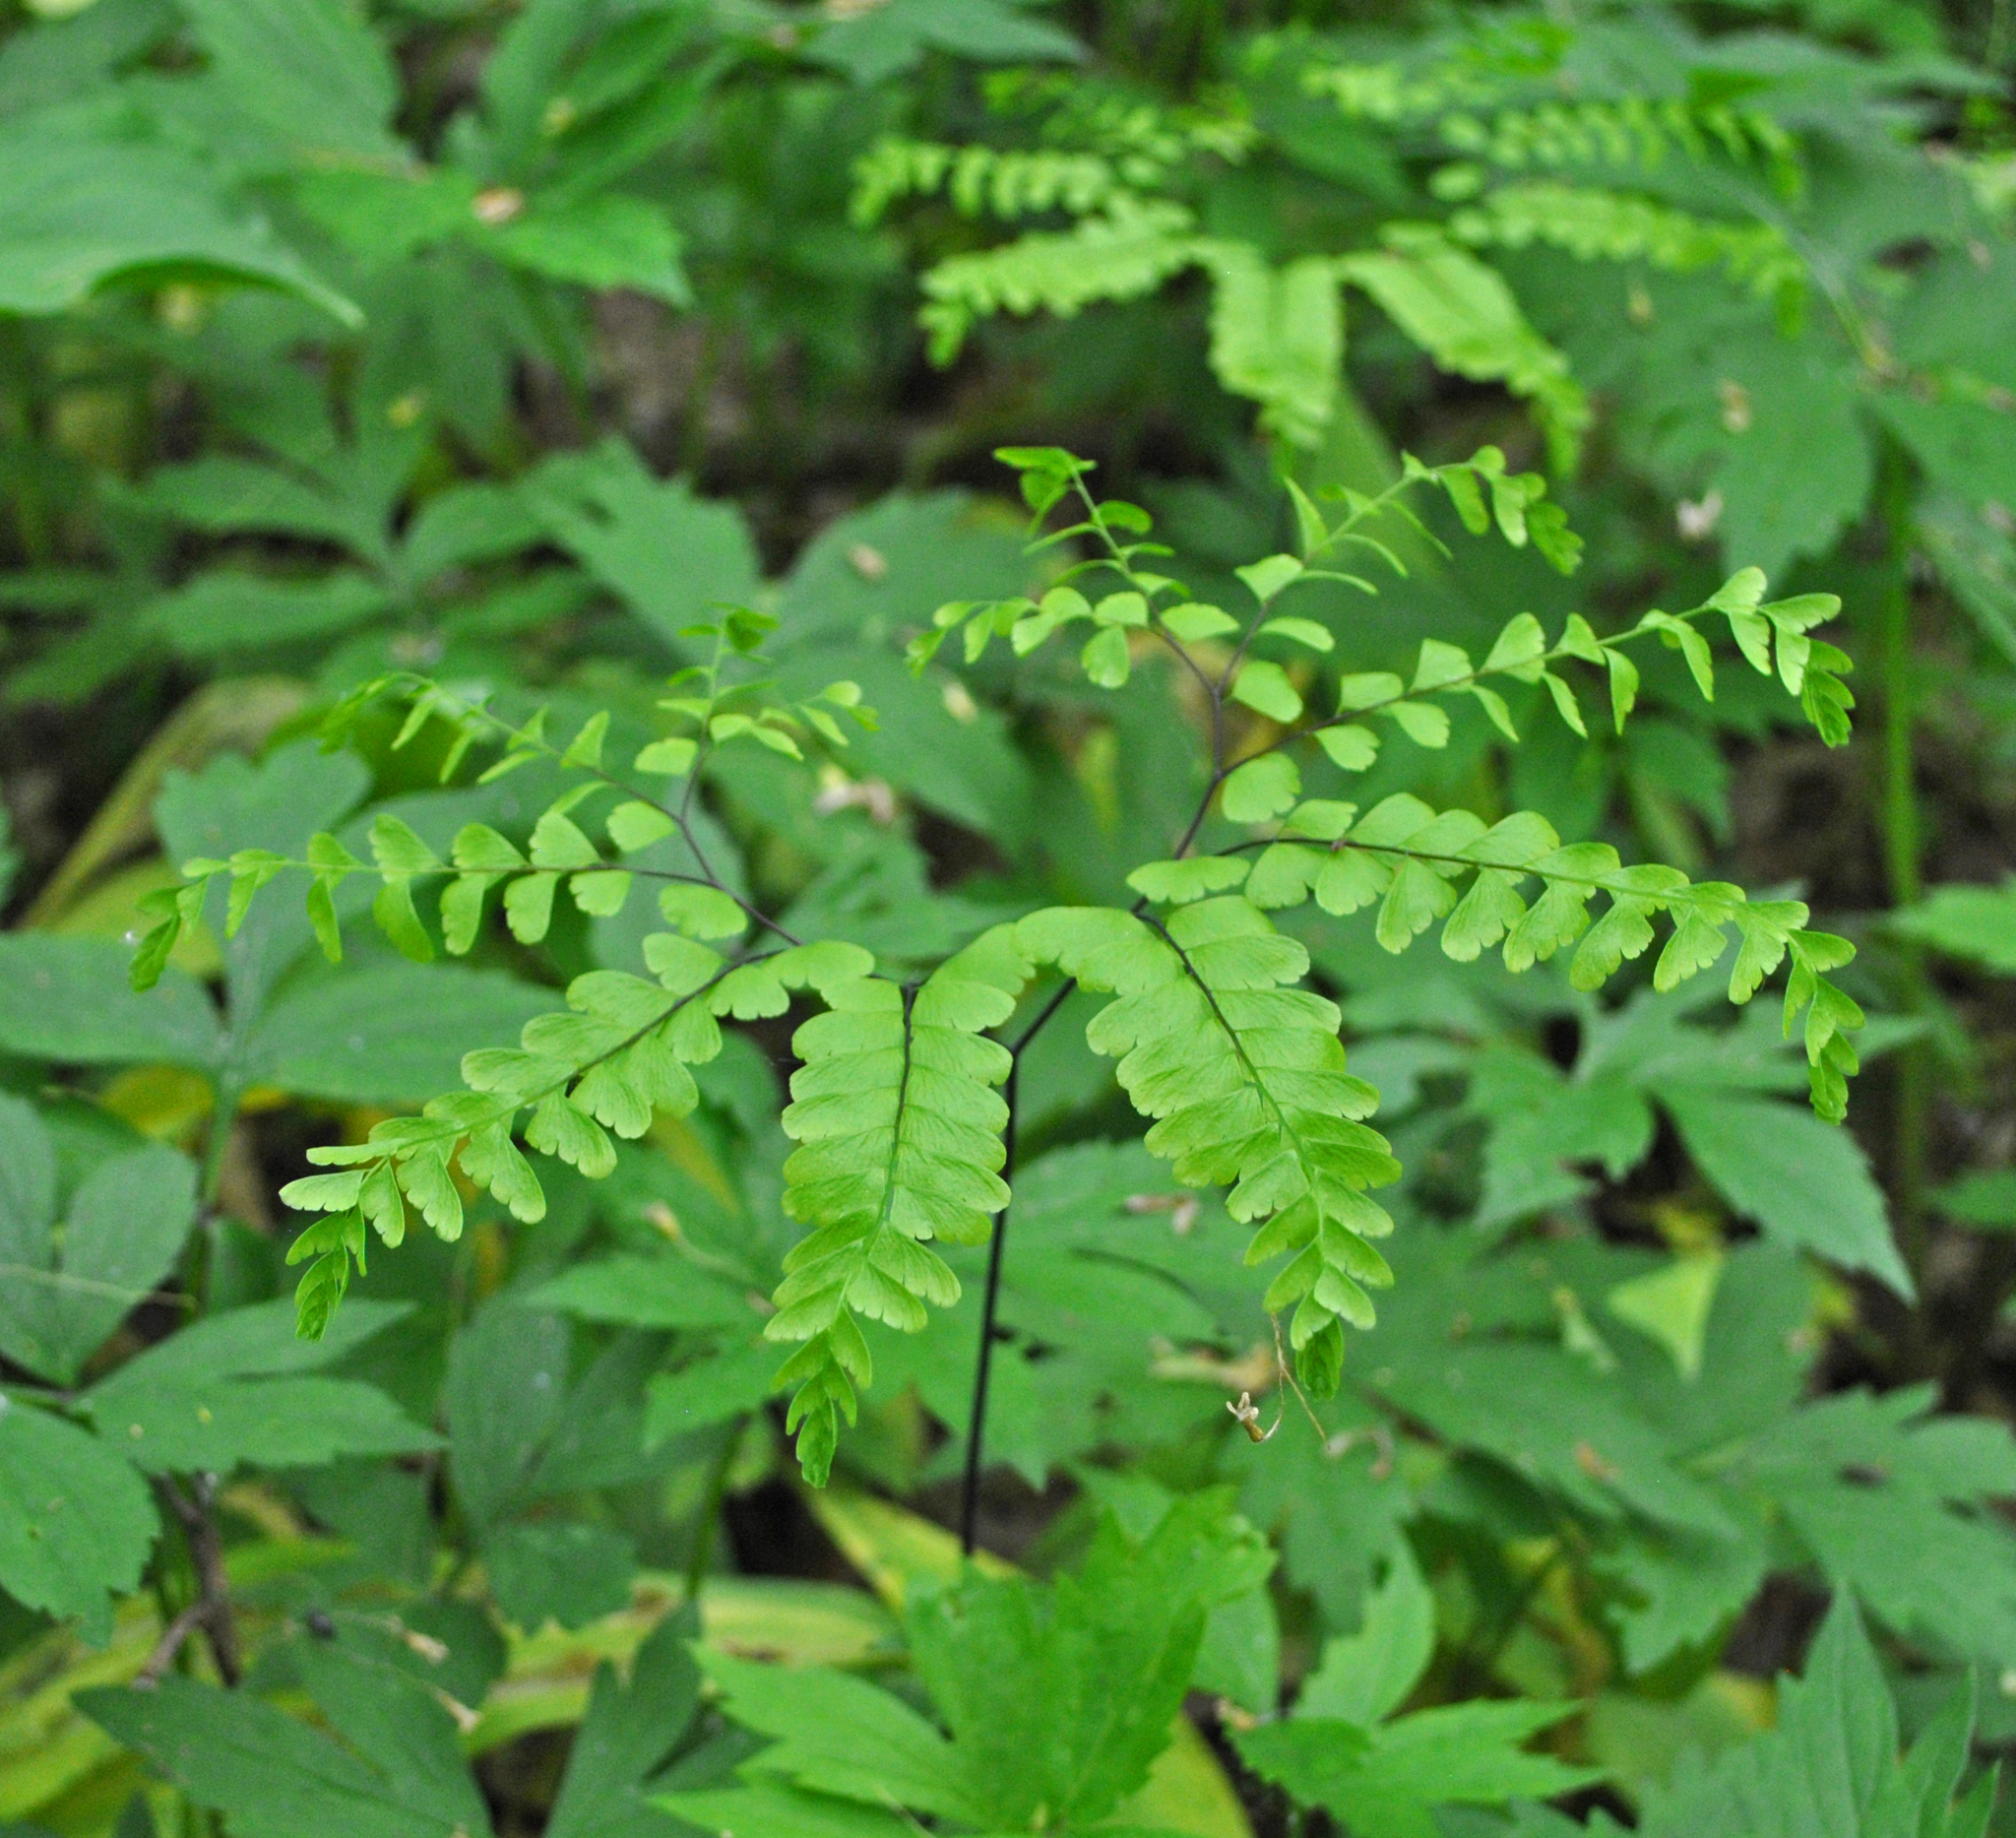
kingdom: Plantae
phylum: Tracheophyta
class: Polypodiopsida
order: Polypodiales
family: Pteridaceae
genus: Adiantum
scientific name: Adiantum pedatum
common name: Five-finger fern
